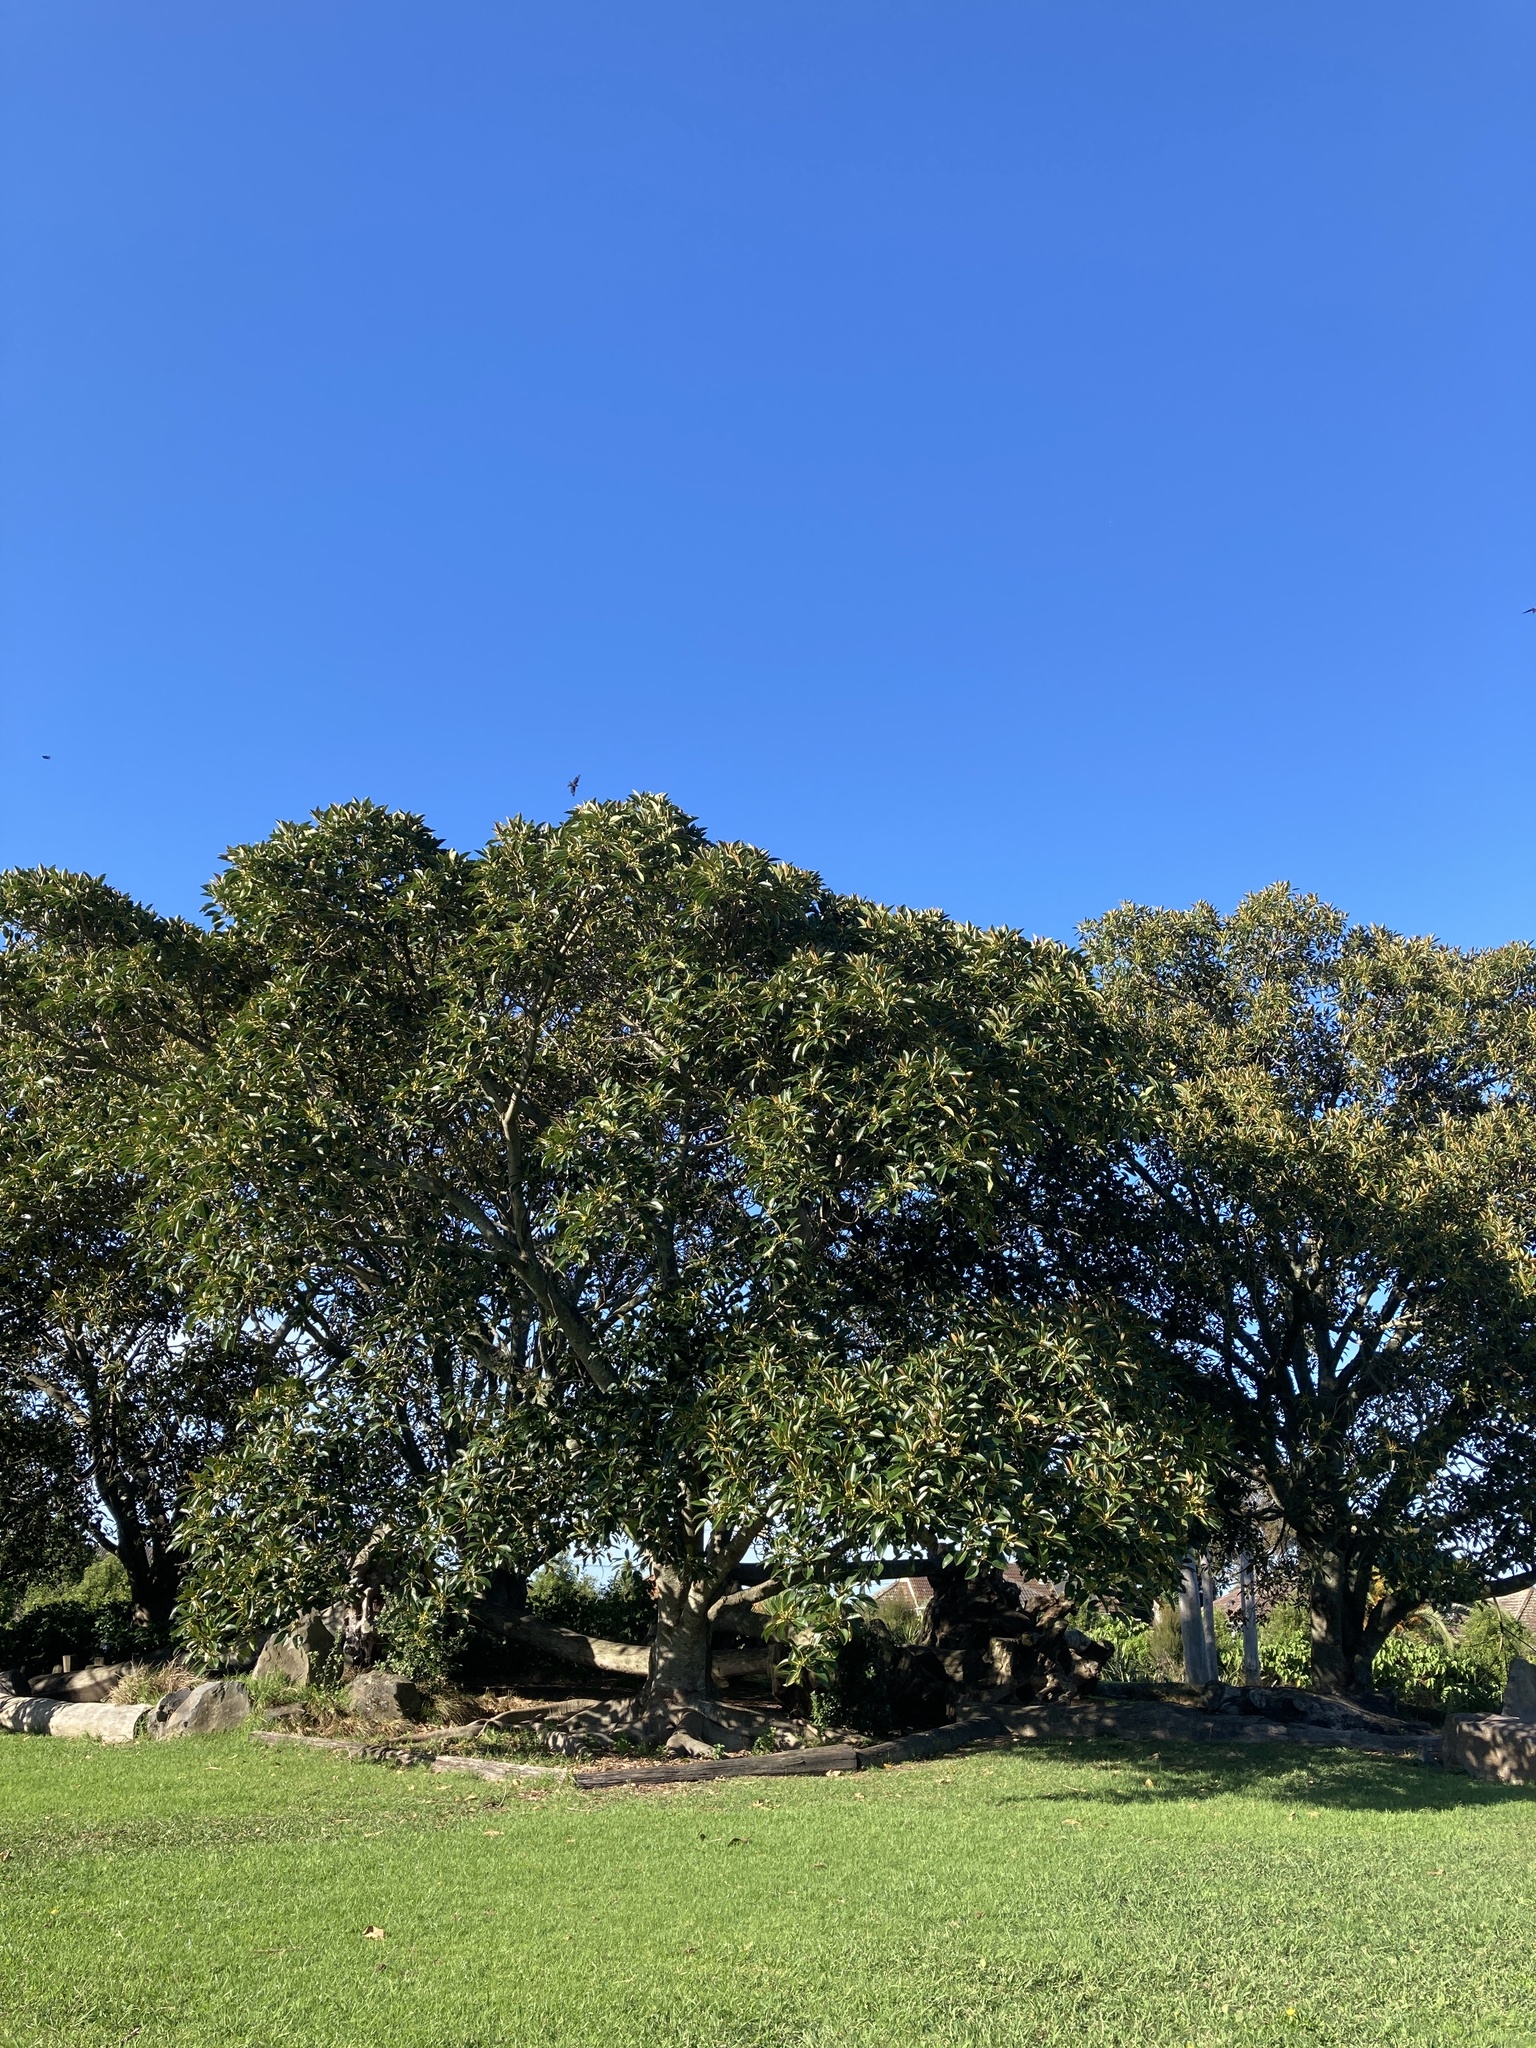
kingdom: Animalia
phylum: Chordata
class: Aves
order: Passeriformes
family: Hirundinidae
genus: Hirundo
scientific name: Hirundo neoxena
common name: Welcome swallow
